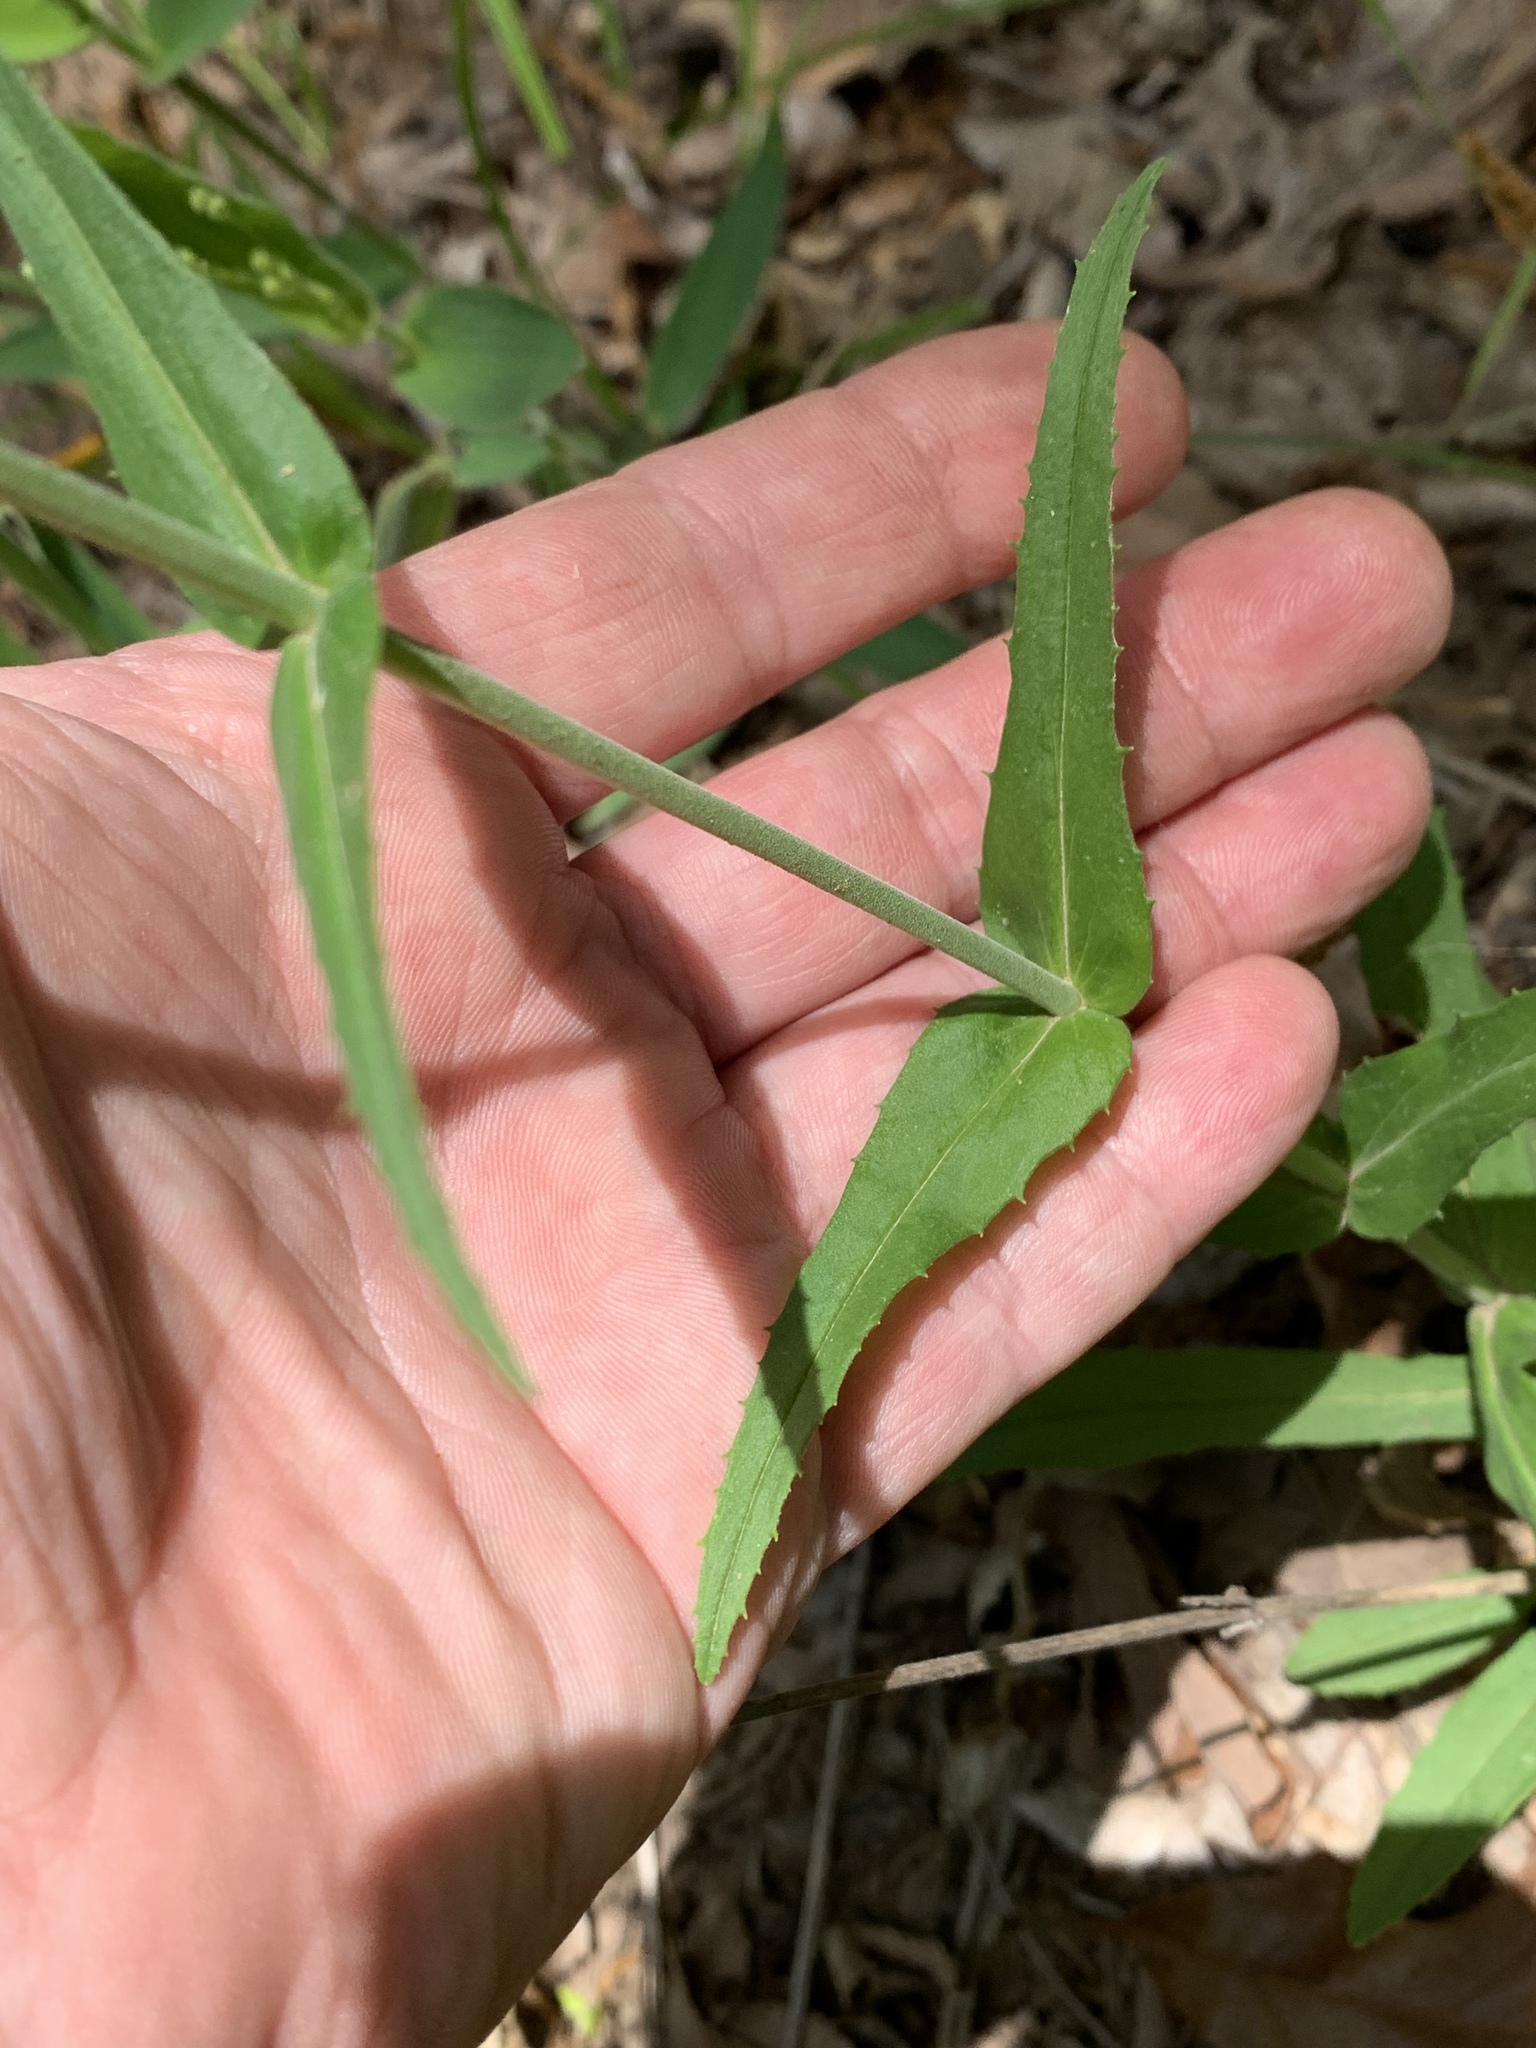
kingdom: Plantae
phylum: Tracheophyta
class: Magnoliopsida
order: Lamiales
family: Plantaginaceae
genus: Penstemon
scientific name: Penstemon laxiflorus
